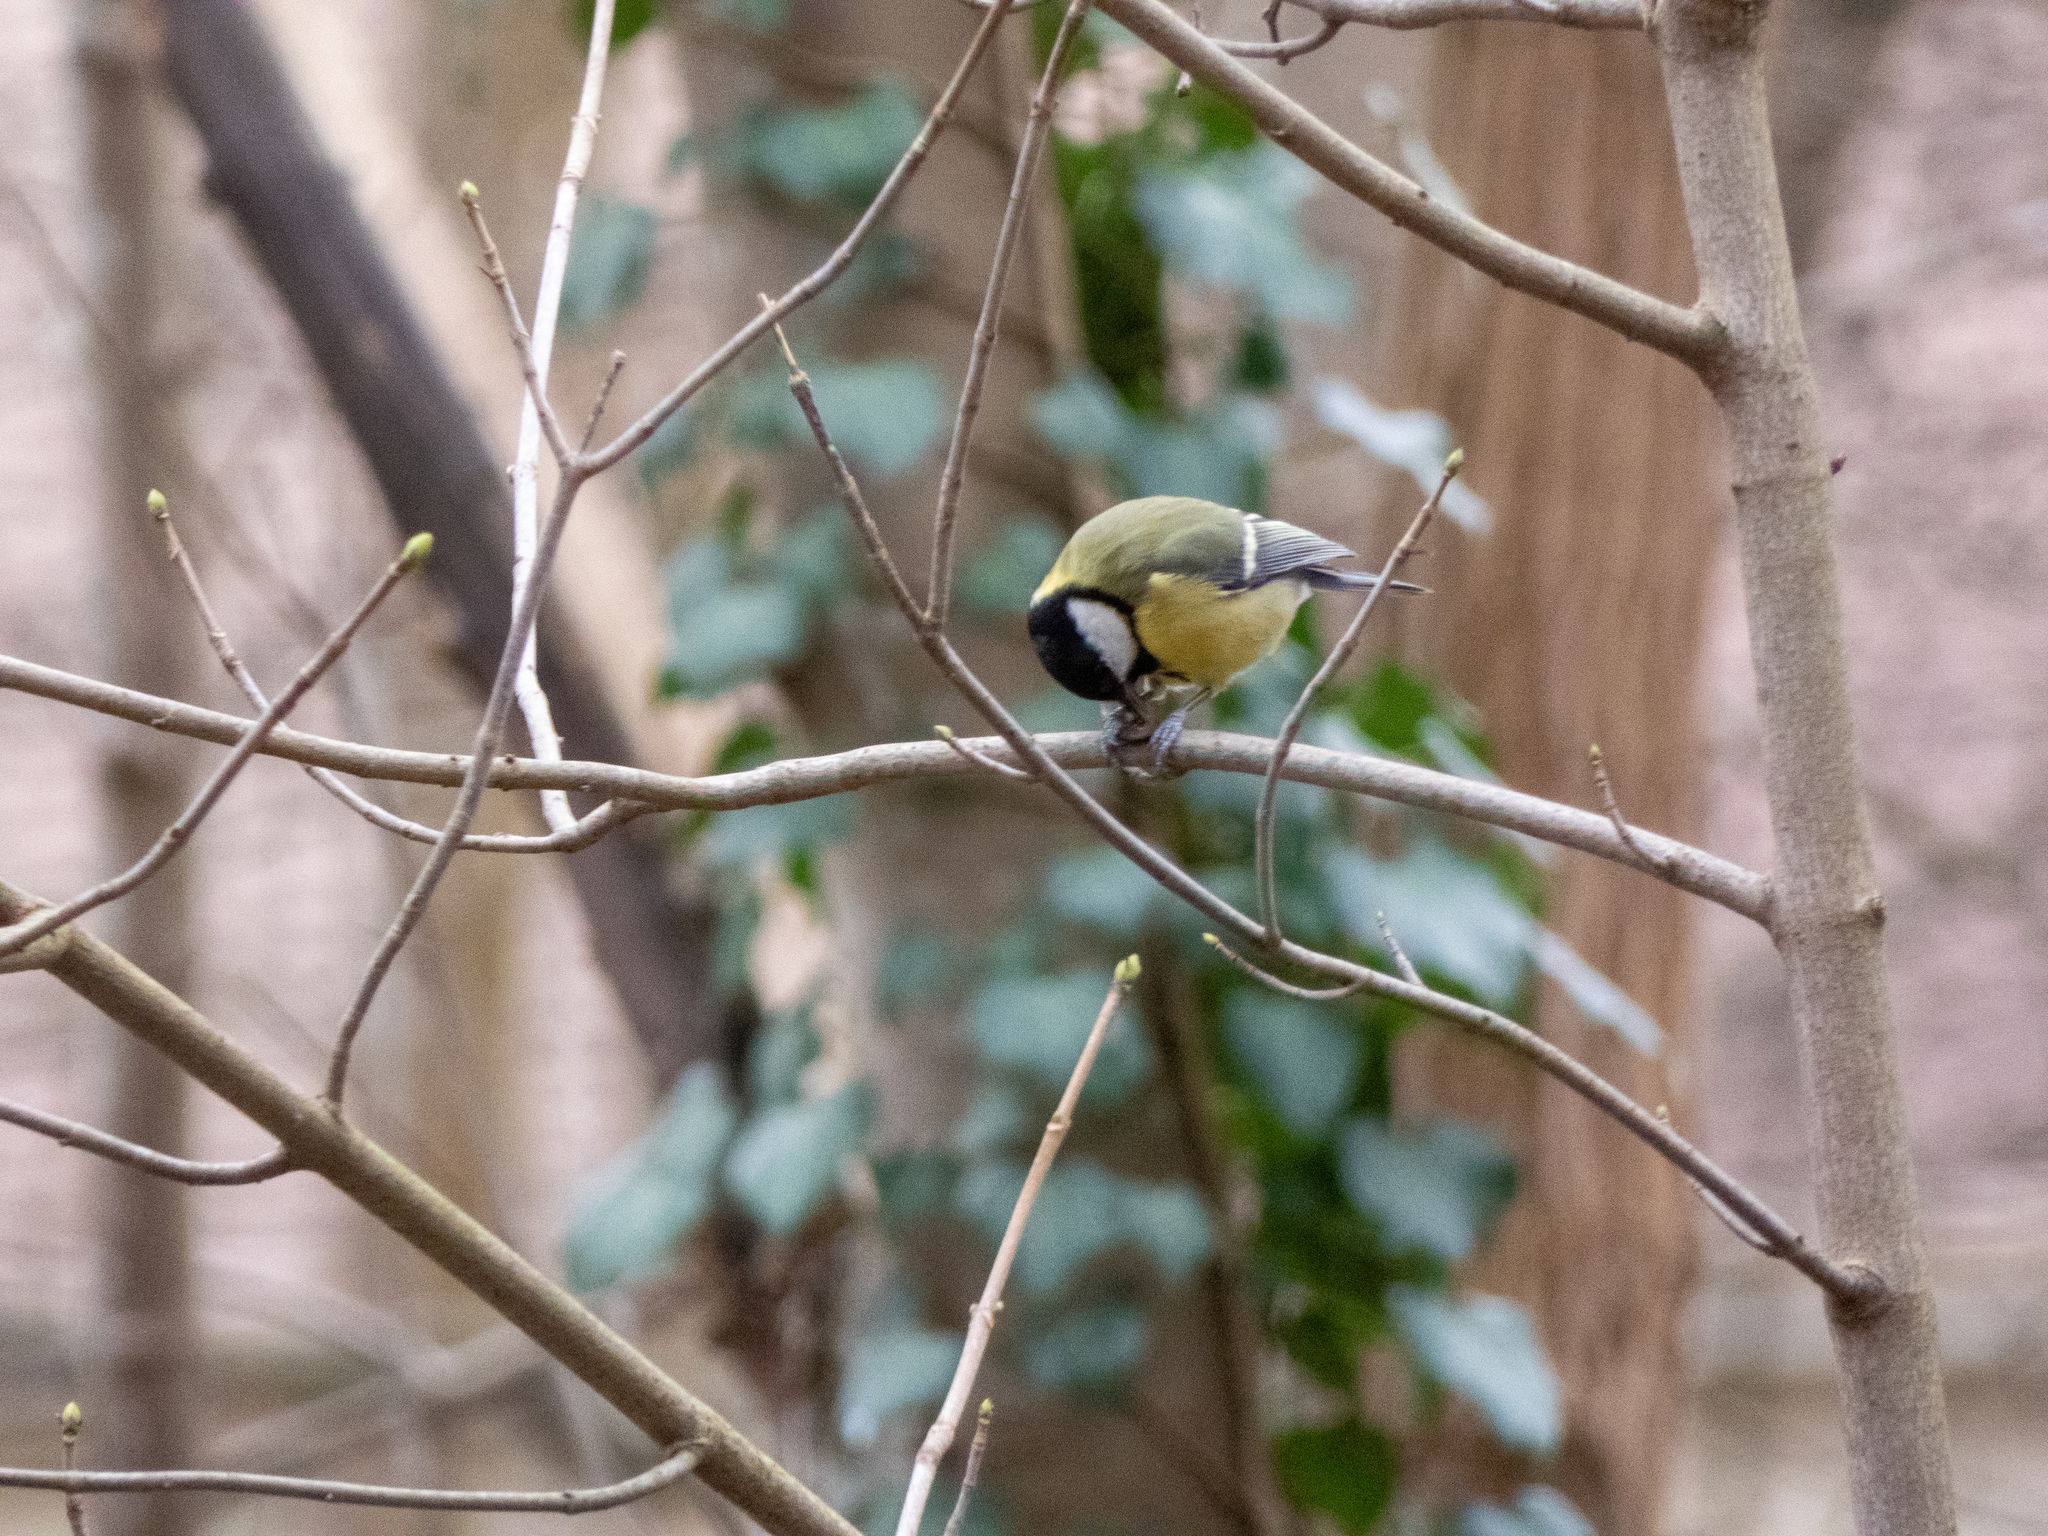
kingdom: Animalia
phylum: Chordata
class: Aves
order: Passeriformes
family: Paridae
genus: Parus
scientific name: Parus major
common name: Great tit
